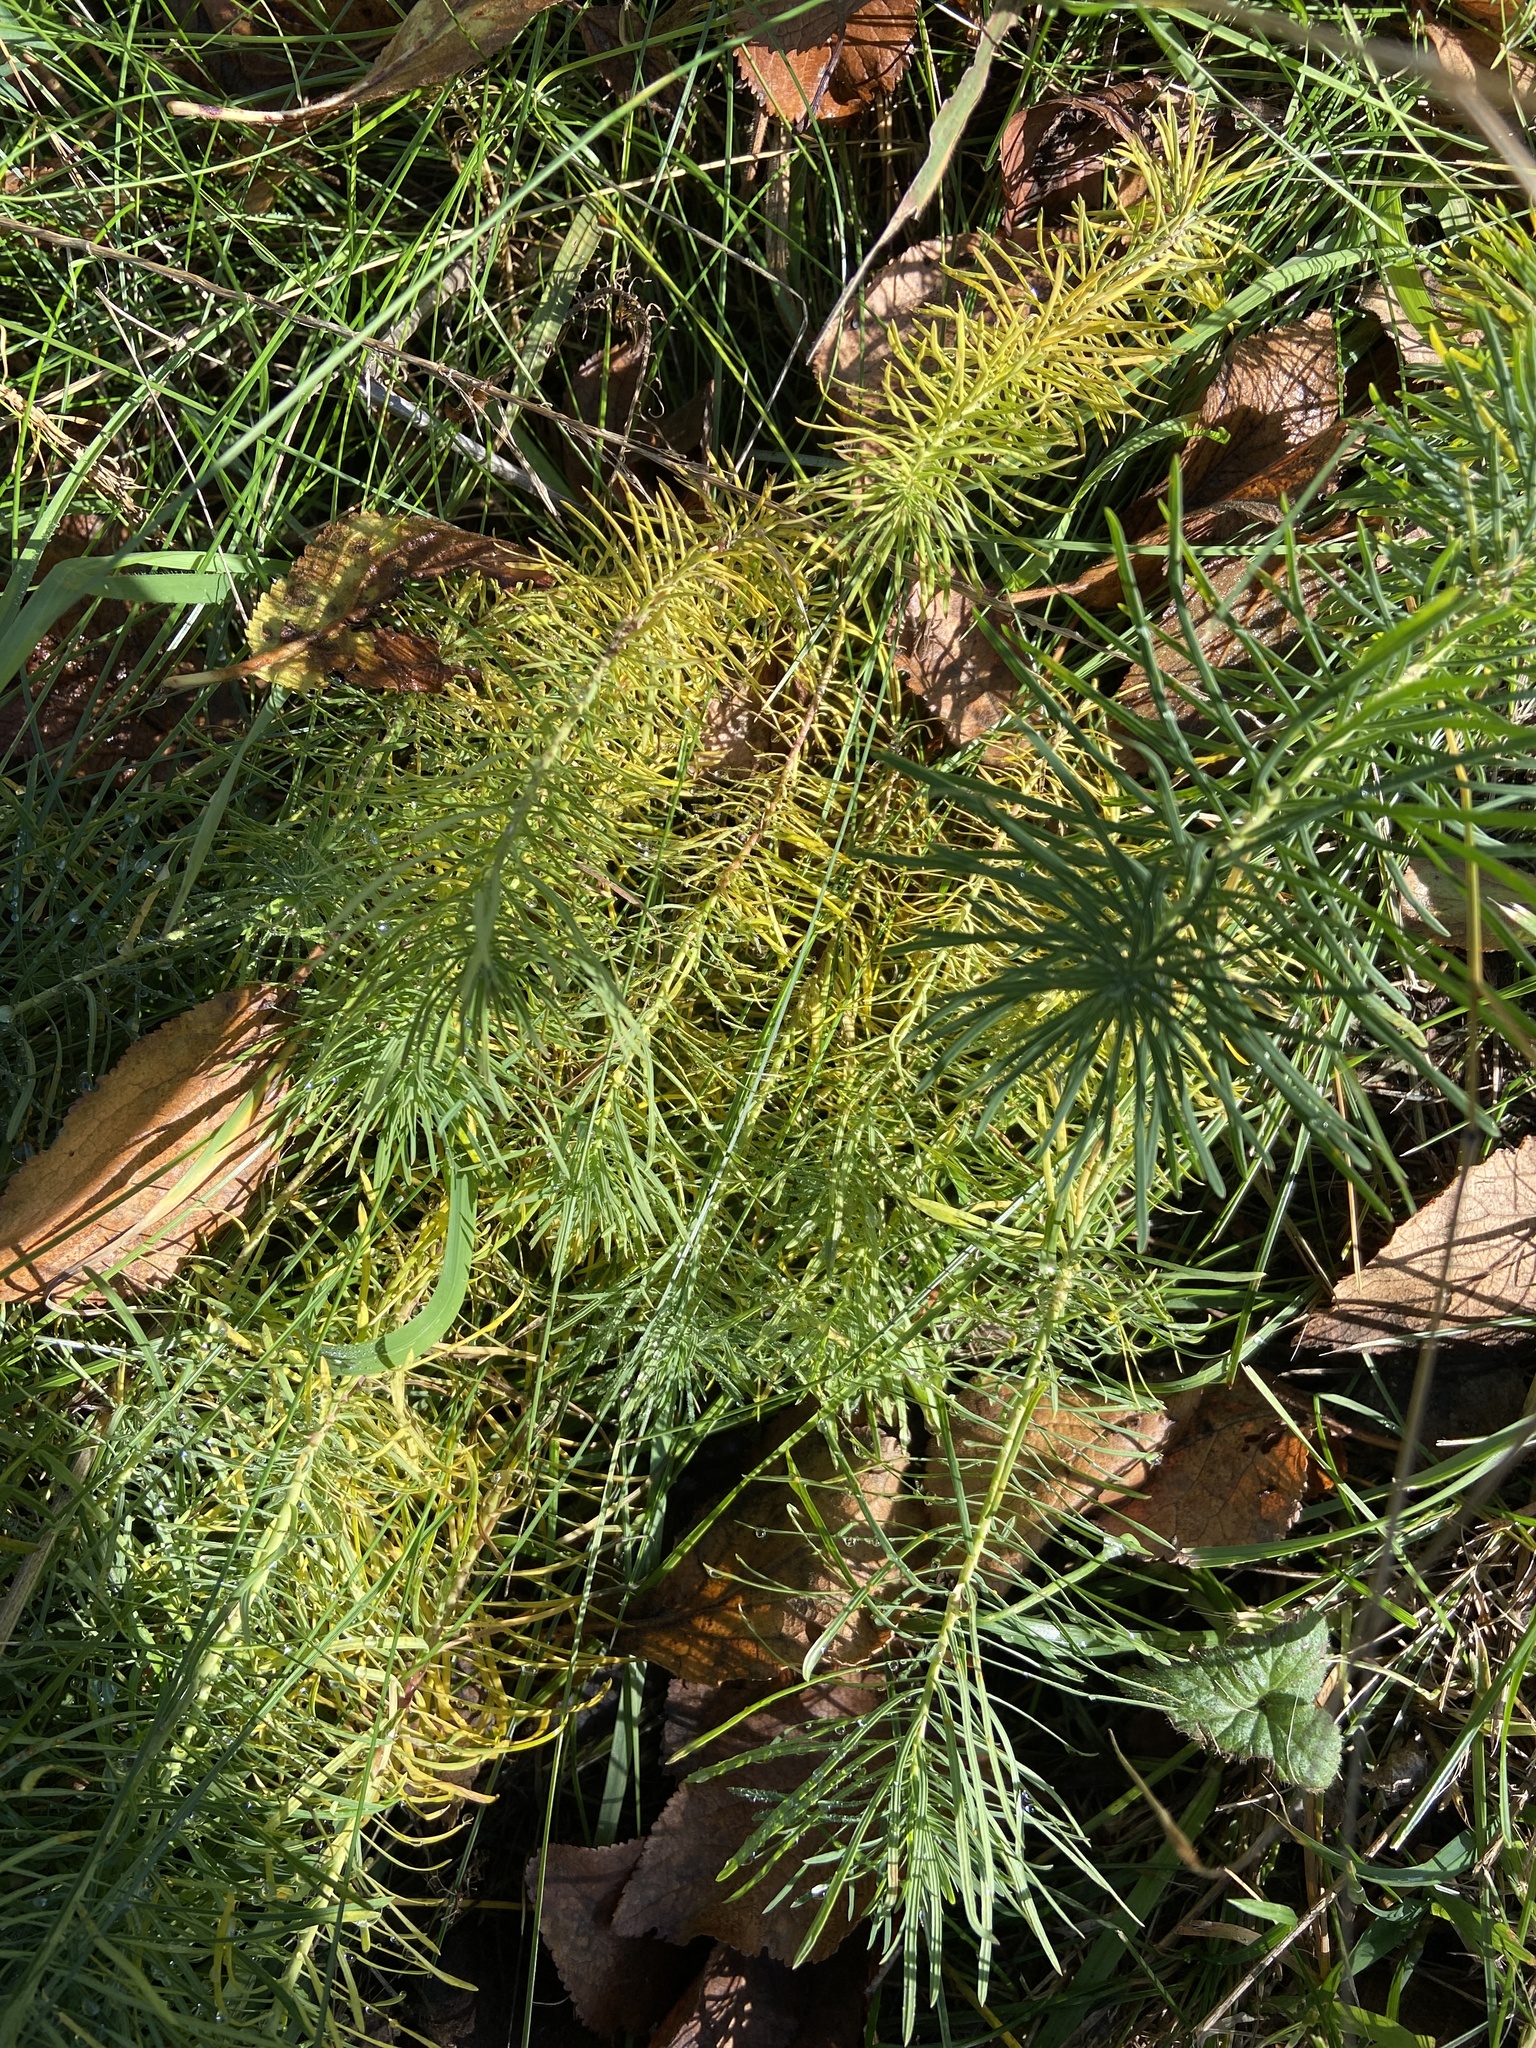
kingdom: Plantae
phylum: Tracheophyta
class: Magnoliopsida
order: Malpighiales
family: Euphorbiaceae
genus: Euphorbia
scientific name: Euphorbia cyparissias
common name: Cypress spurge
